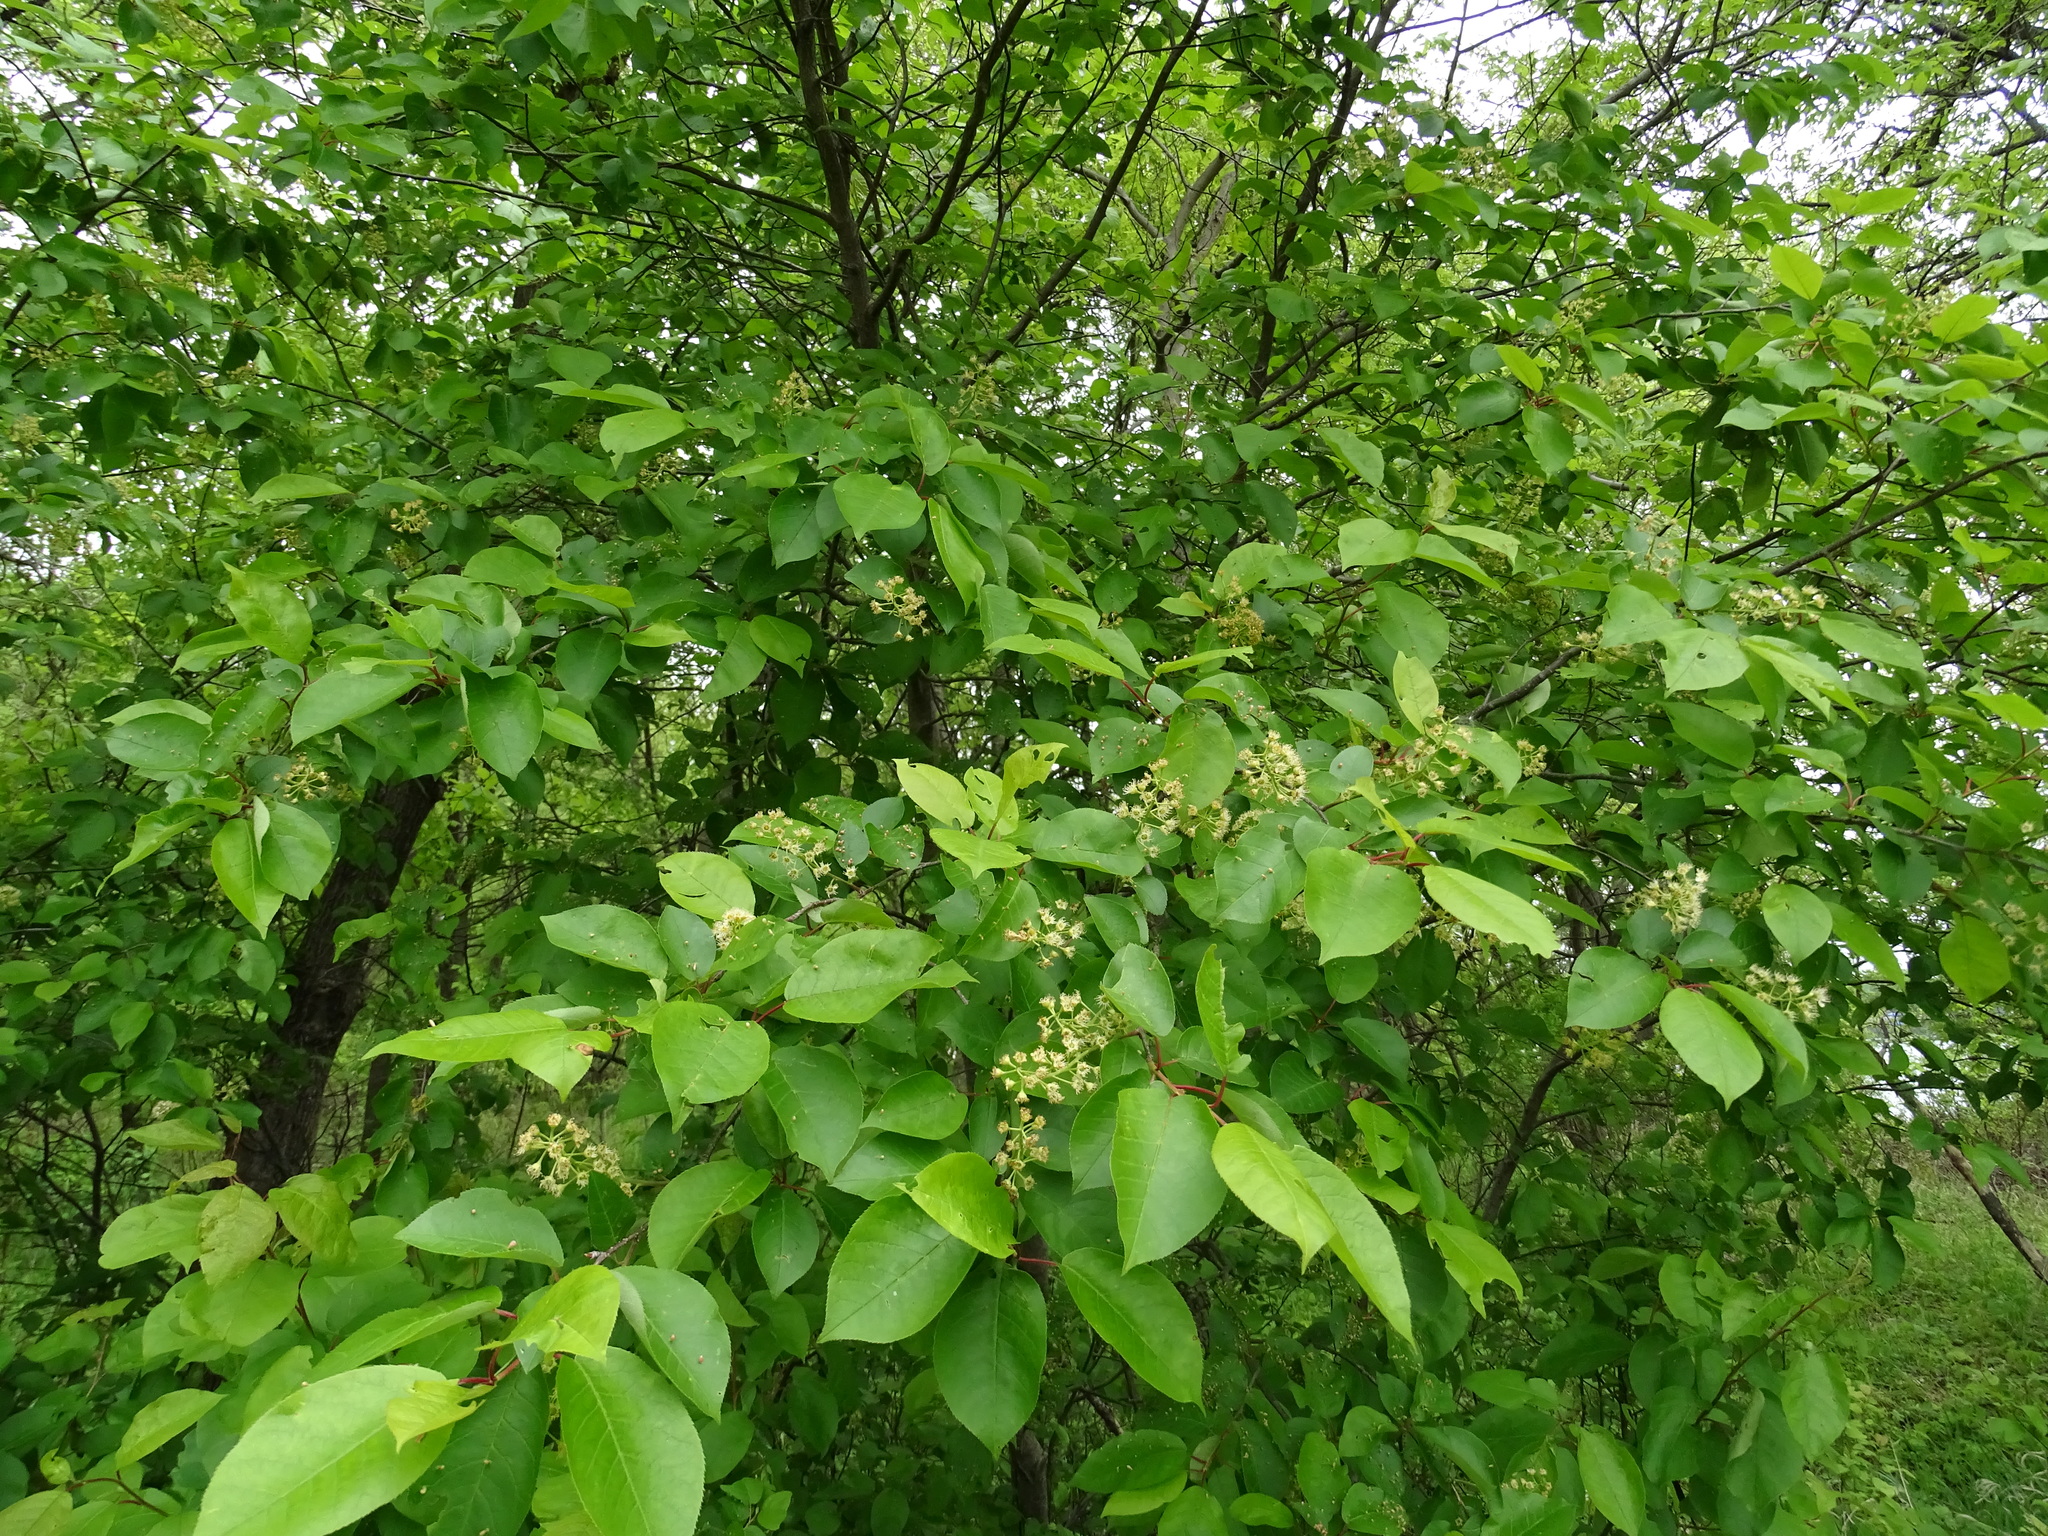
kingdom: Plantae
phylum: Tracheophyta
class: Magnoliopsida
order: Rosales
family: Rosaceae
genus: Prunus
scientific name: Prunus virginiana
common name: Chokecherry
